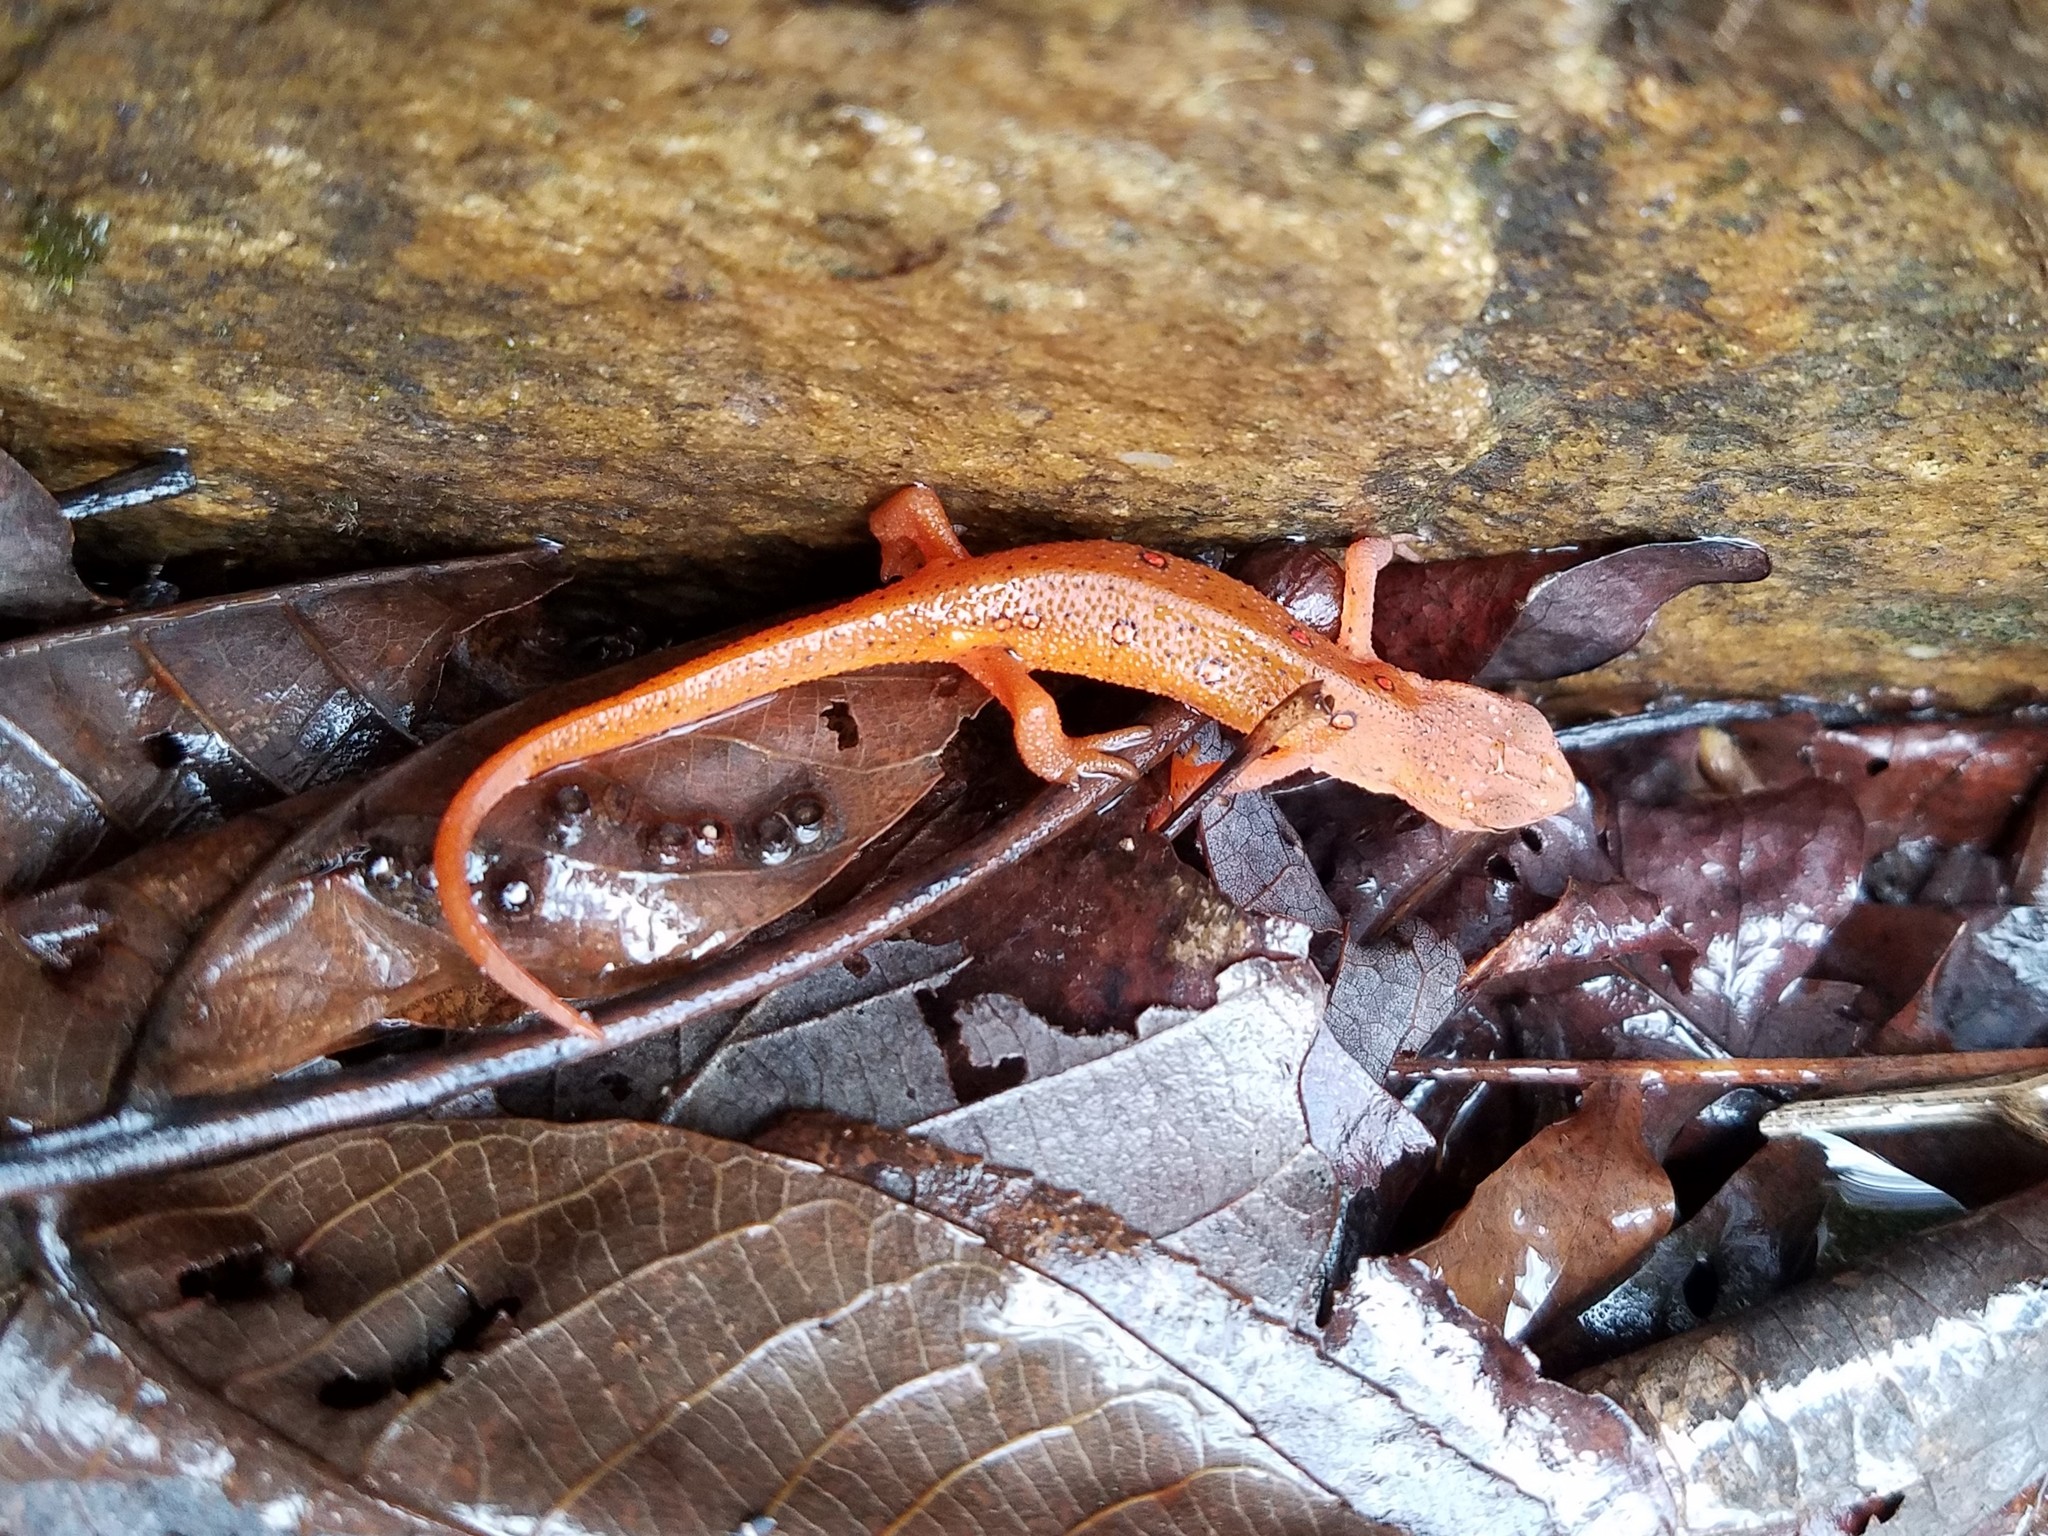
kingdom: Animalia
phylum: Chordata
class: Amphibia
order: Caudata
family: Salamandridae
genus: Notophthalmus
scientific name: Notophthalmus viridescens
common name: Eastern newt
